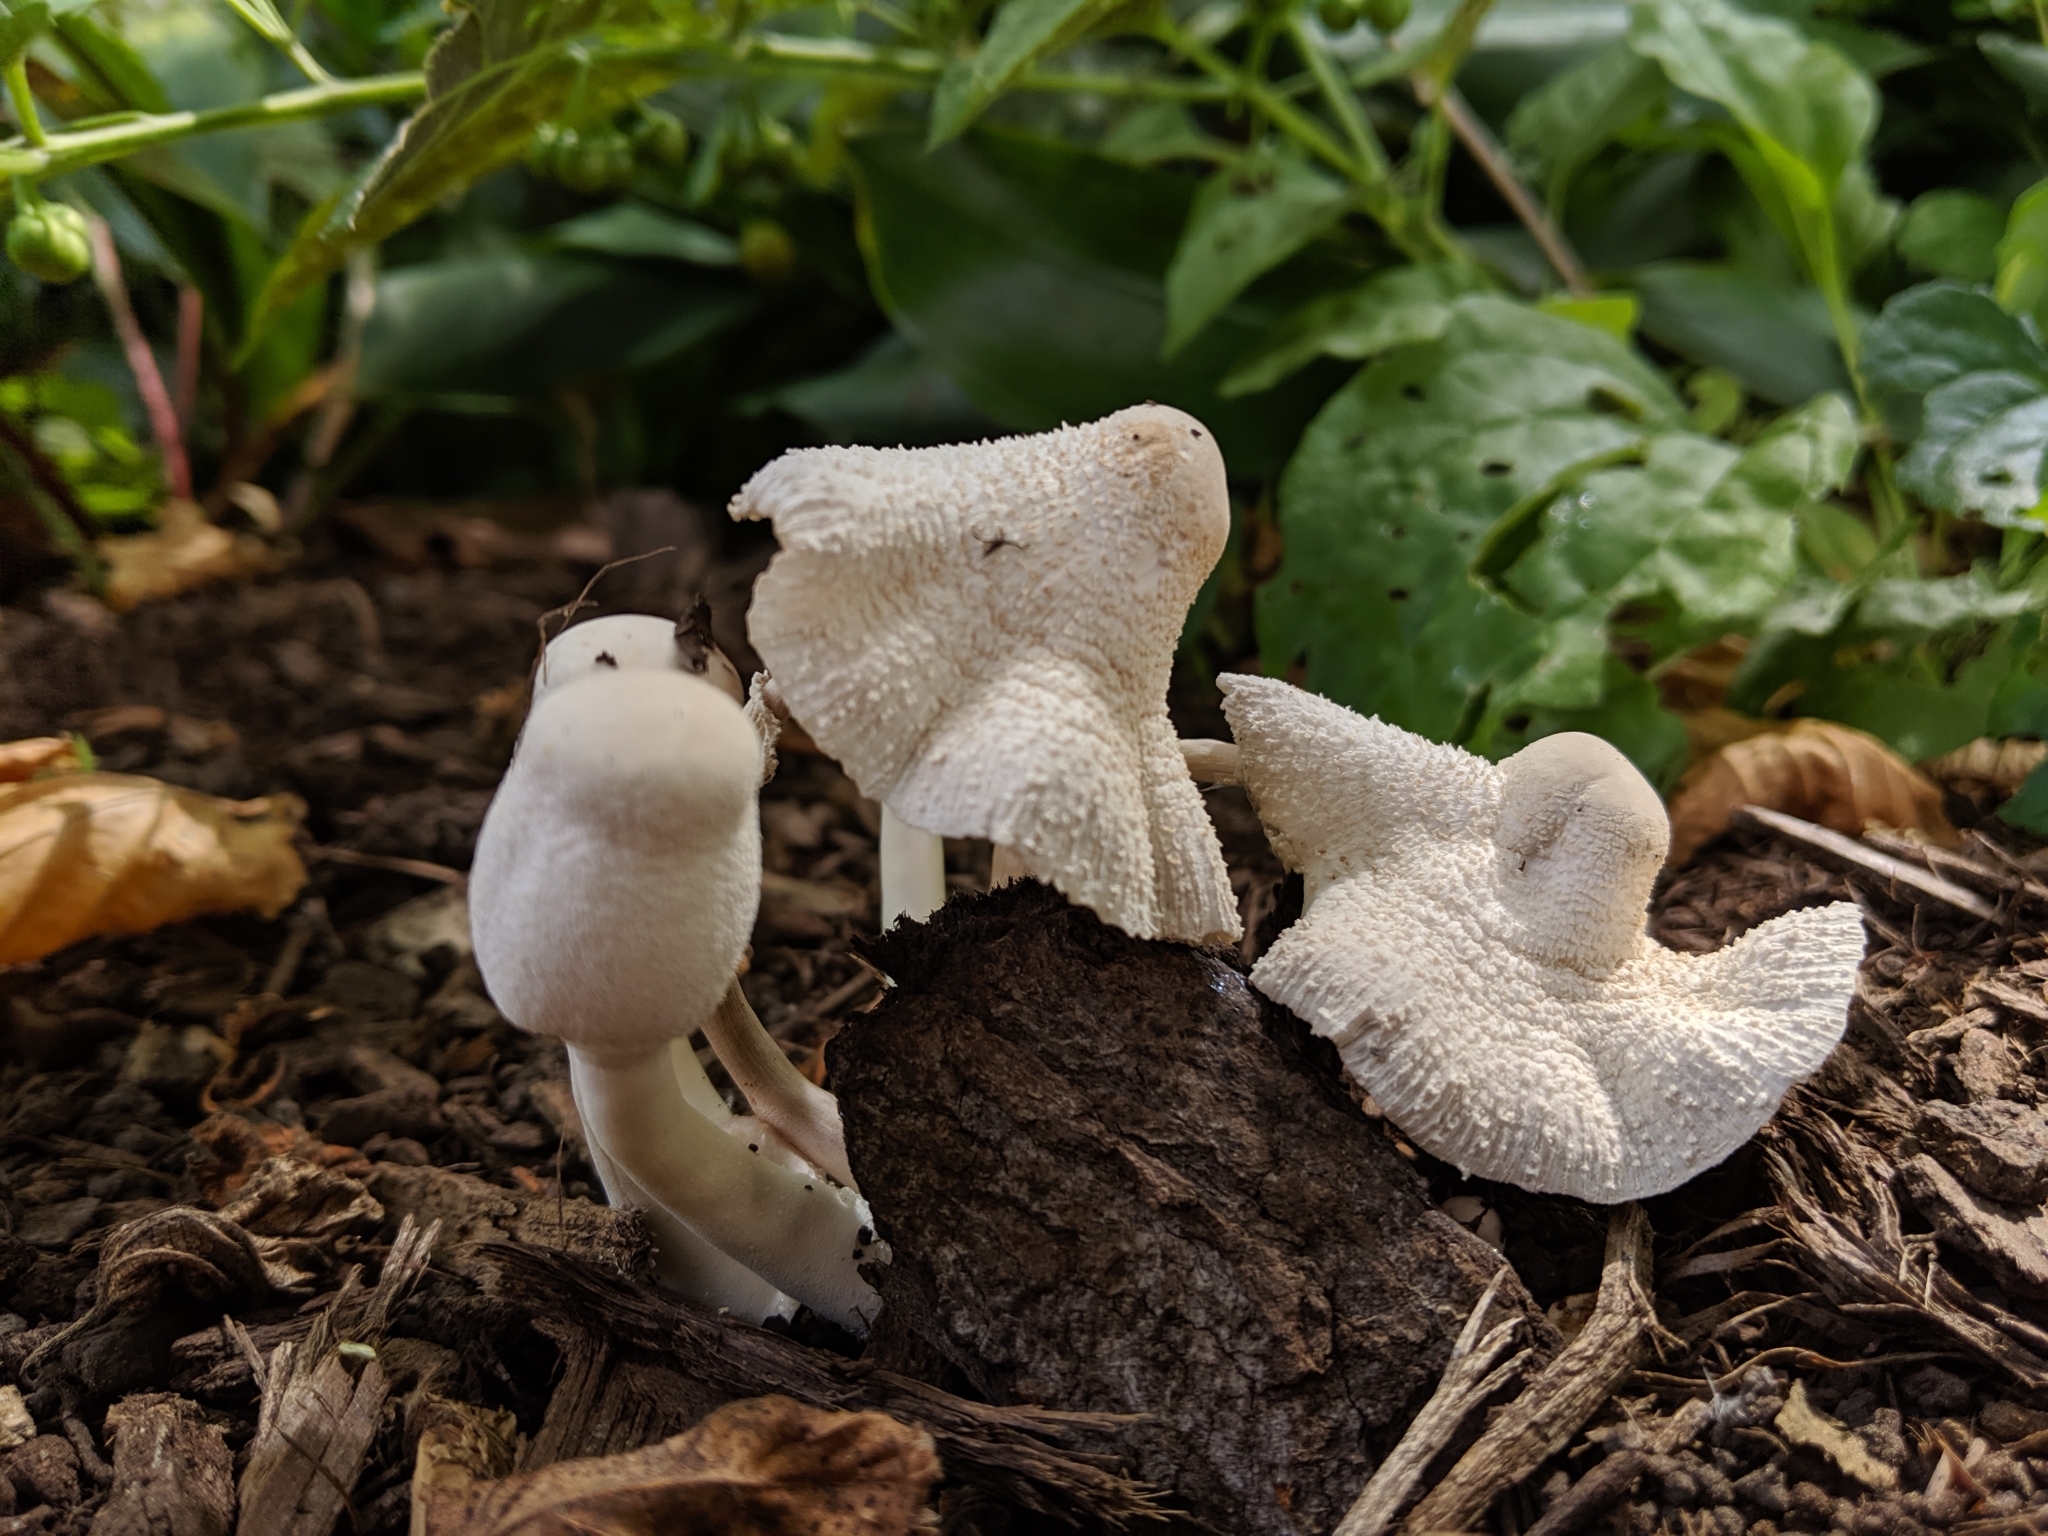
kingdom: Fungi
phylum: Basidiomycota
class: Agaricomycetes
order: Agaricales
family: Agaricaceae
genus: Leucocoprinus
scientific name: Leucocoprinus cepistipes
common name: Onion-stalk parasol
